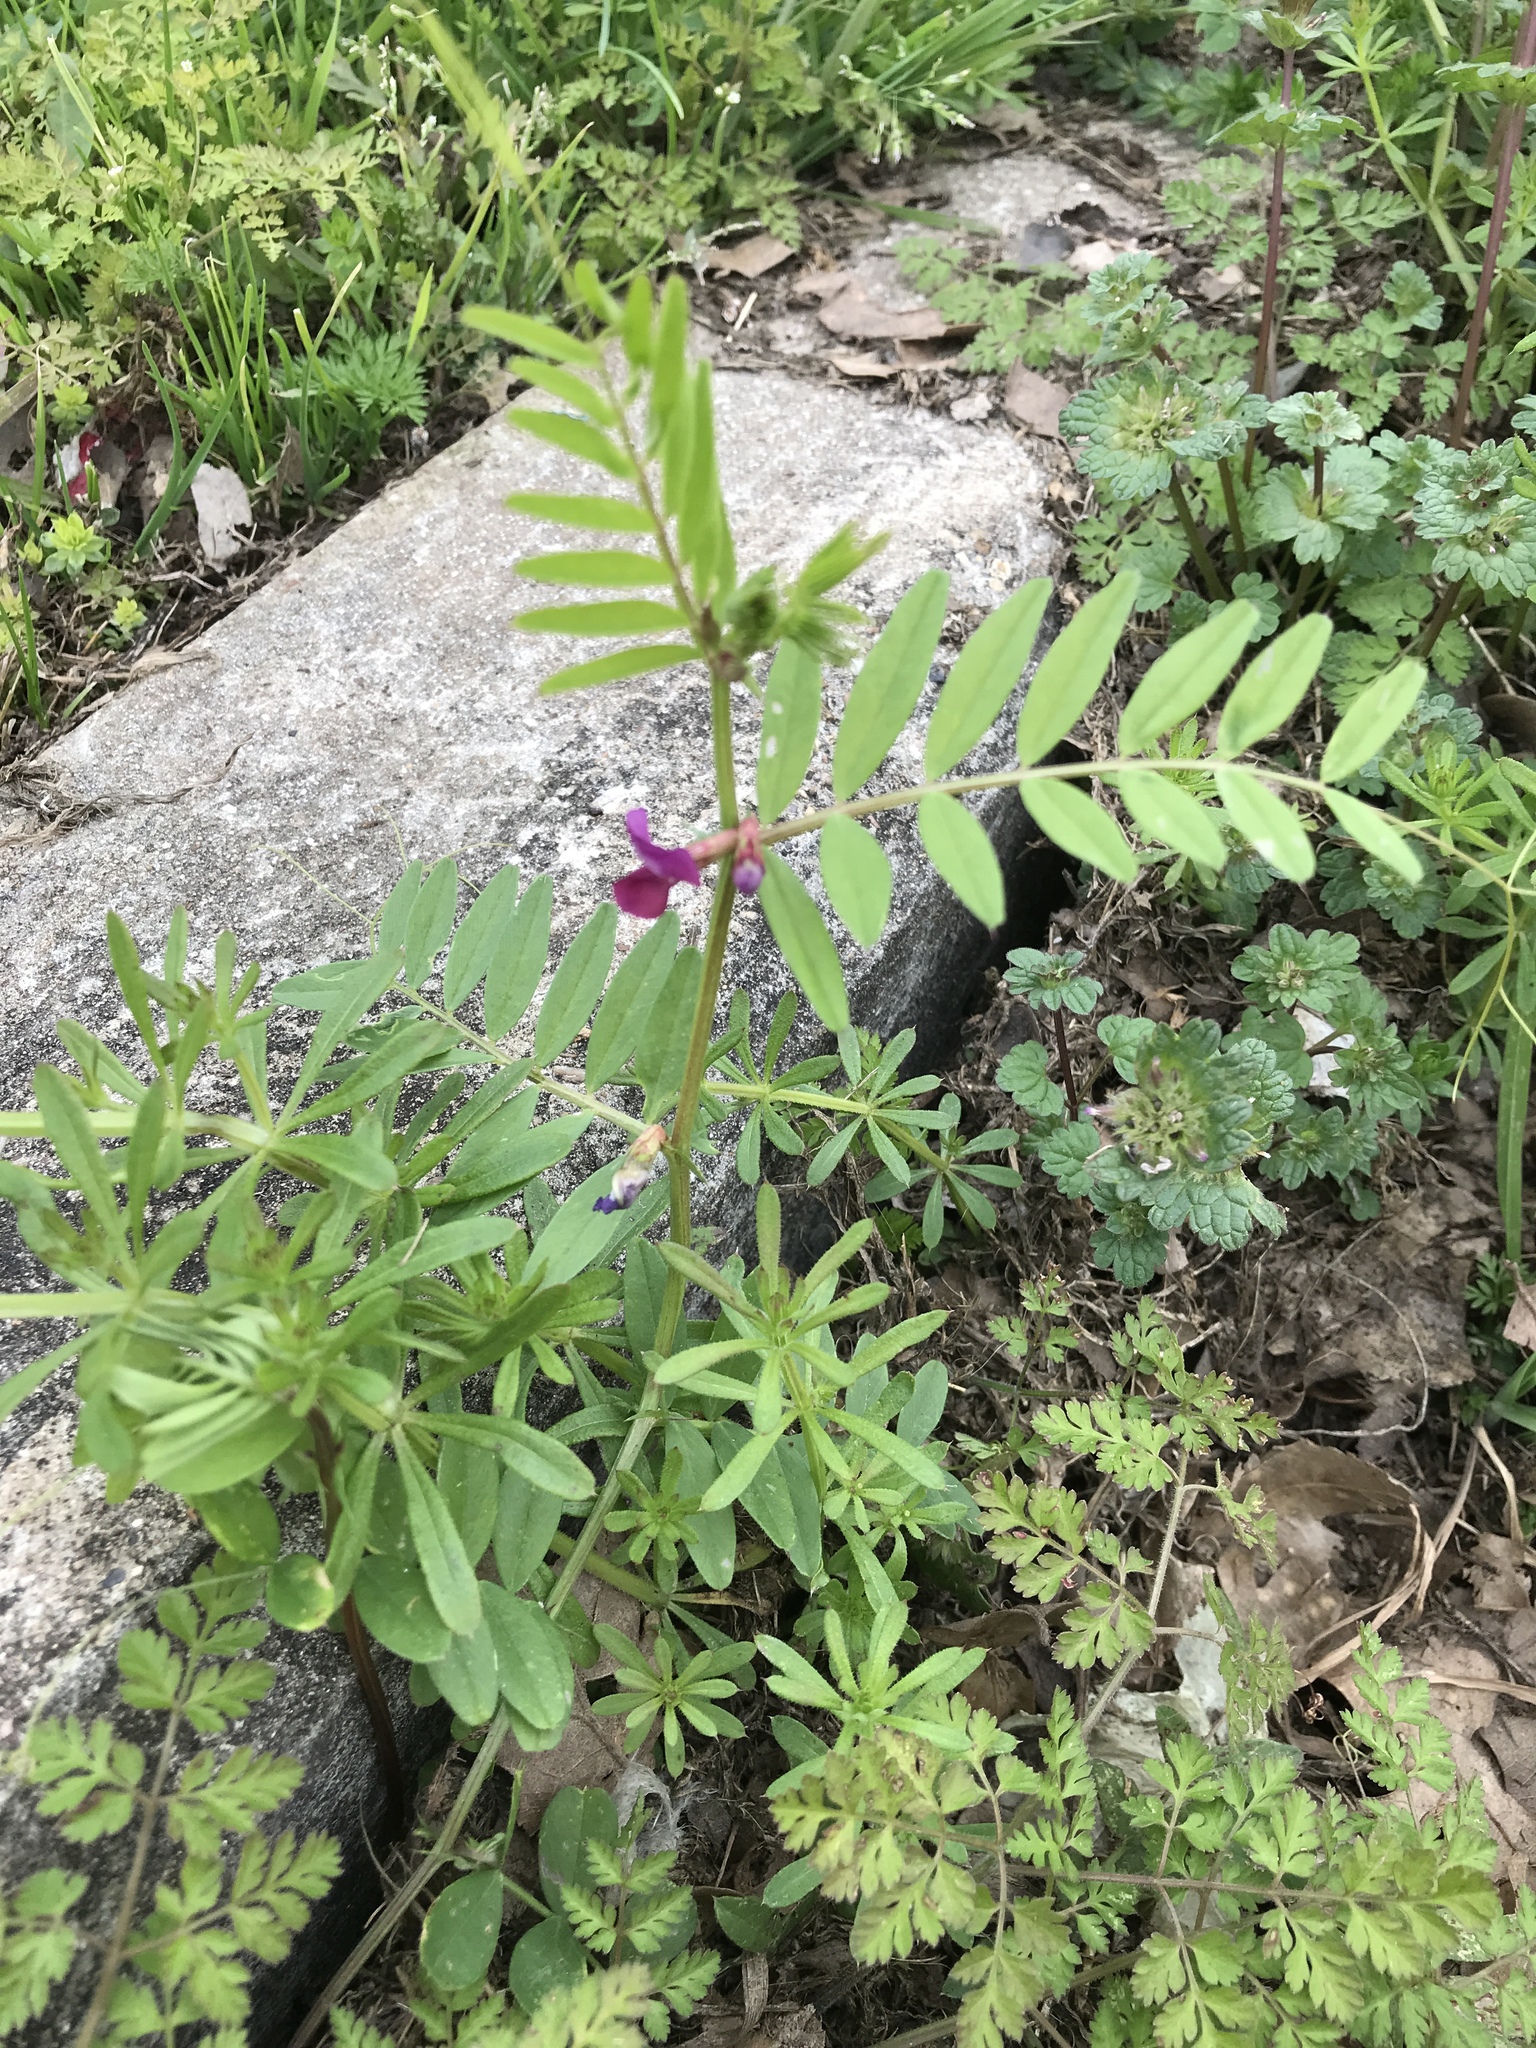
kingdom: Plantae
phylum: Tracheophyta
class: Magnoliopsida
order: Fabales
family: Fabaceae
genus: Vicia
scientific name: Vicia sativa
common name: Garden vetch
